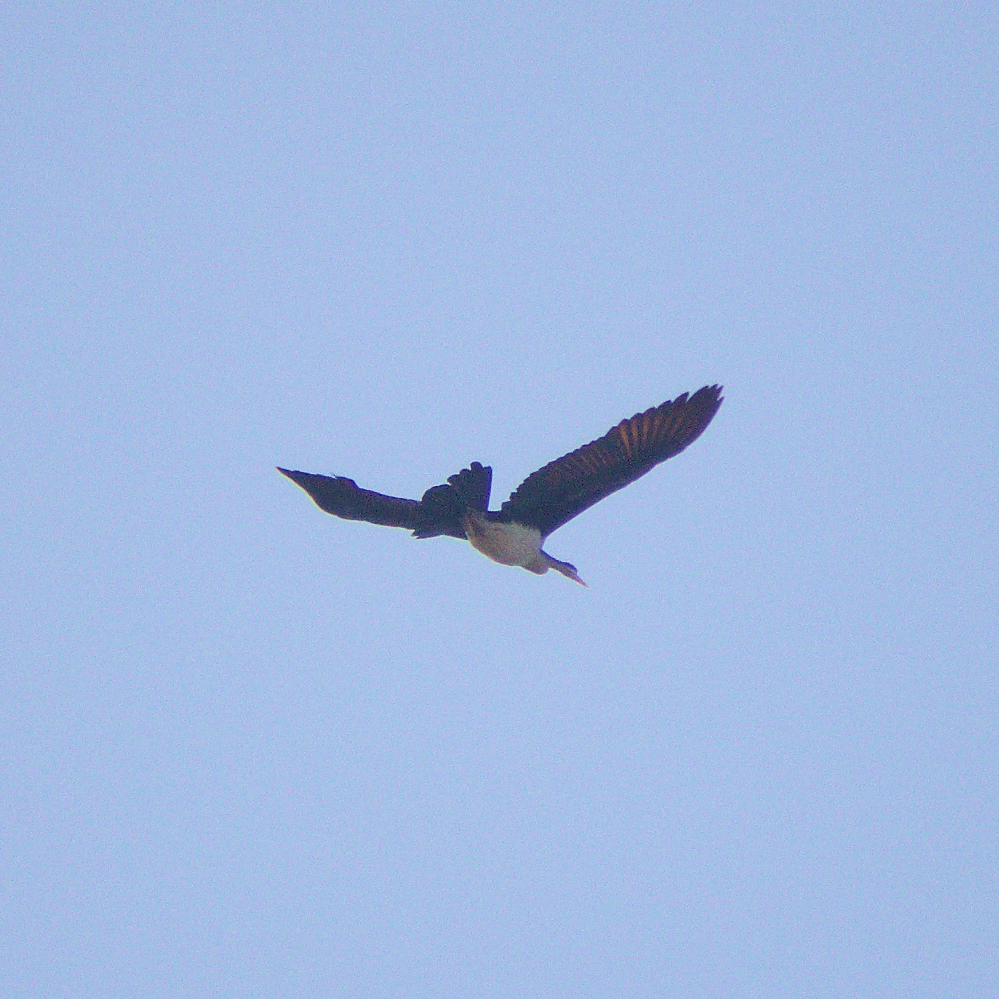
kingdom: Animalia
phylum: Chordata
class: Aves
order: Suliformes
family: Anhingidae
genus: Anhinga
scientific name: Anhinga novaehollandiae
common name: Australasian darter
